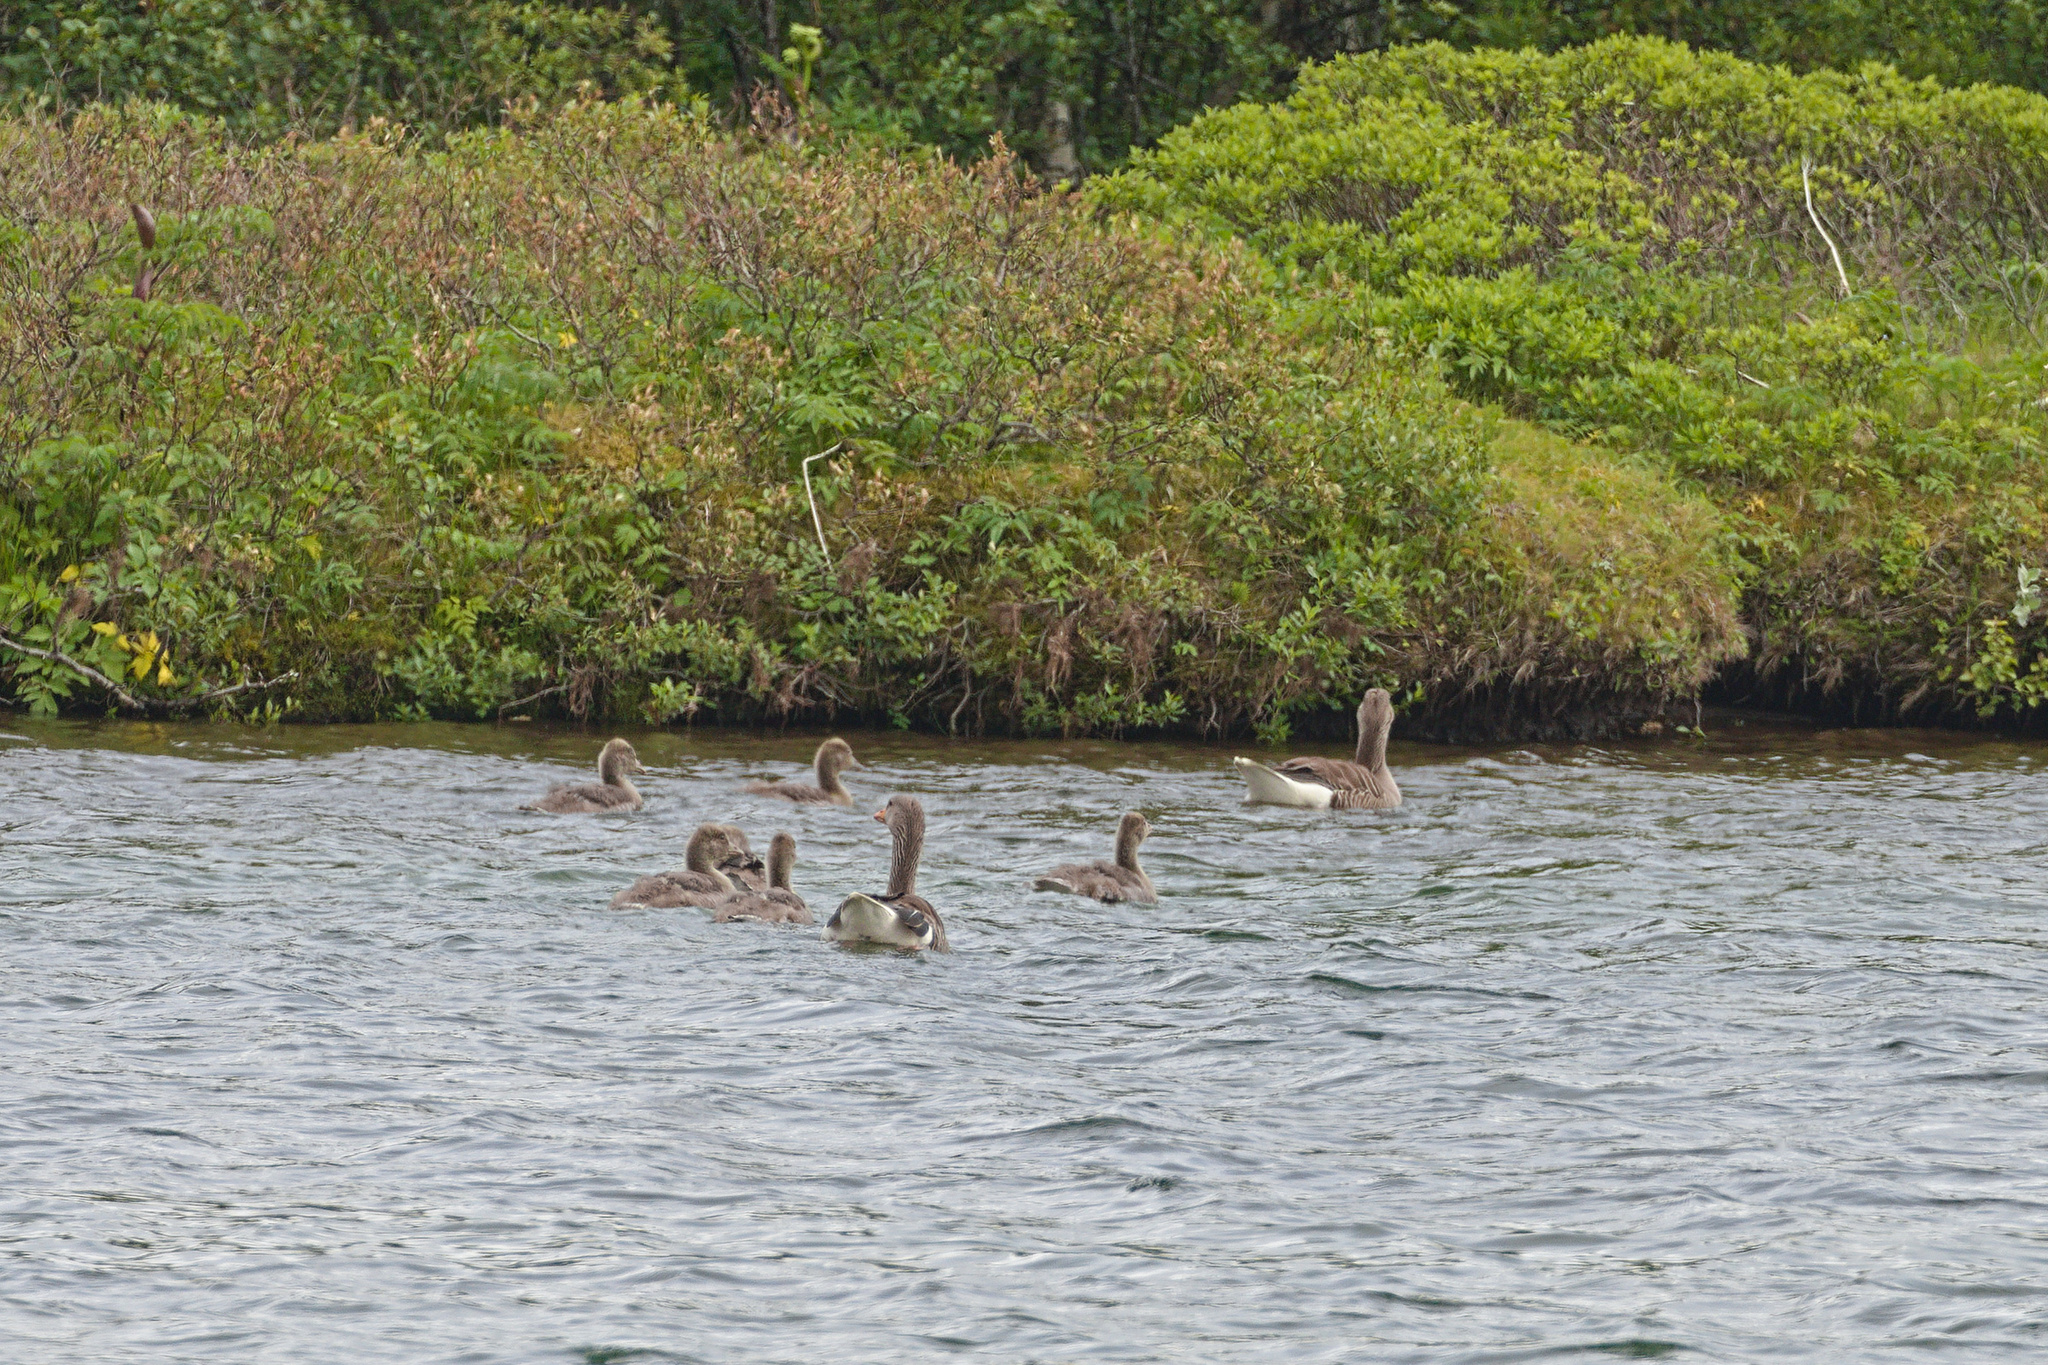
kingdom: Animalia
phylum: Chordata
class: Aves
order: Anseriformes
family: Anatidae
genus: Anser
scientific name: Anser anser
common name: Greylag goose
